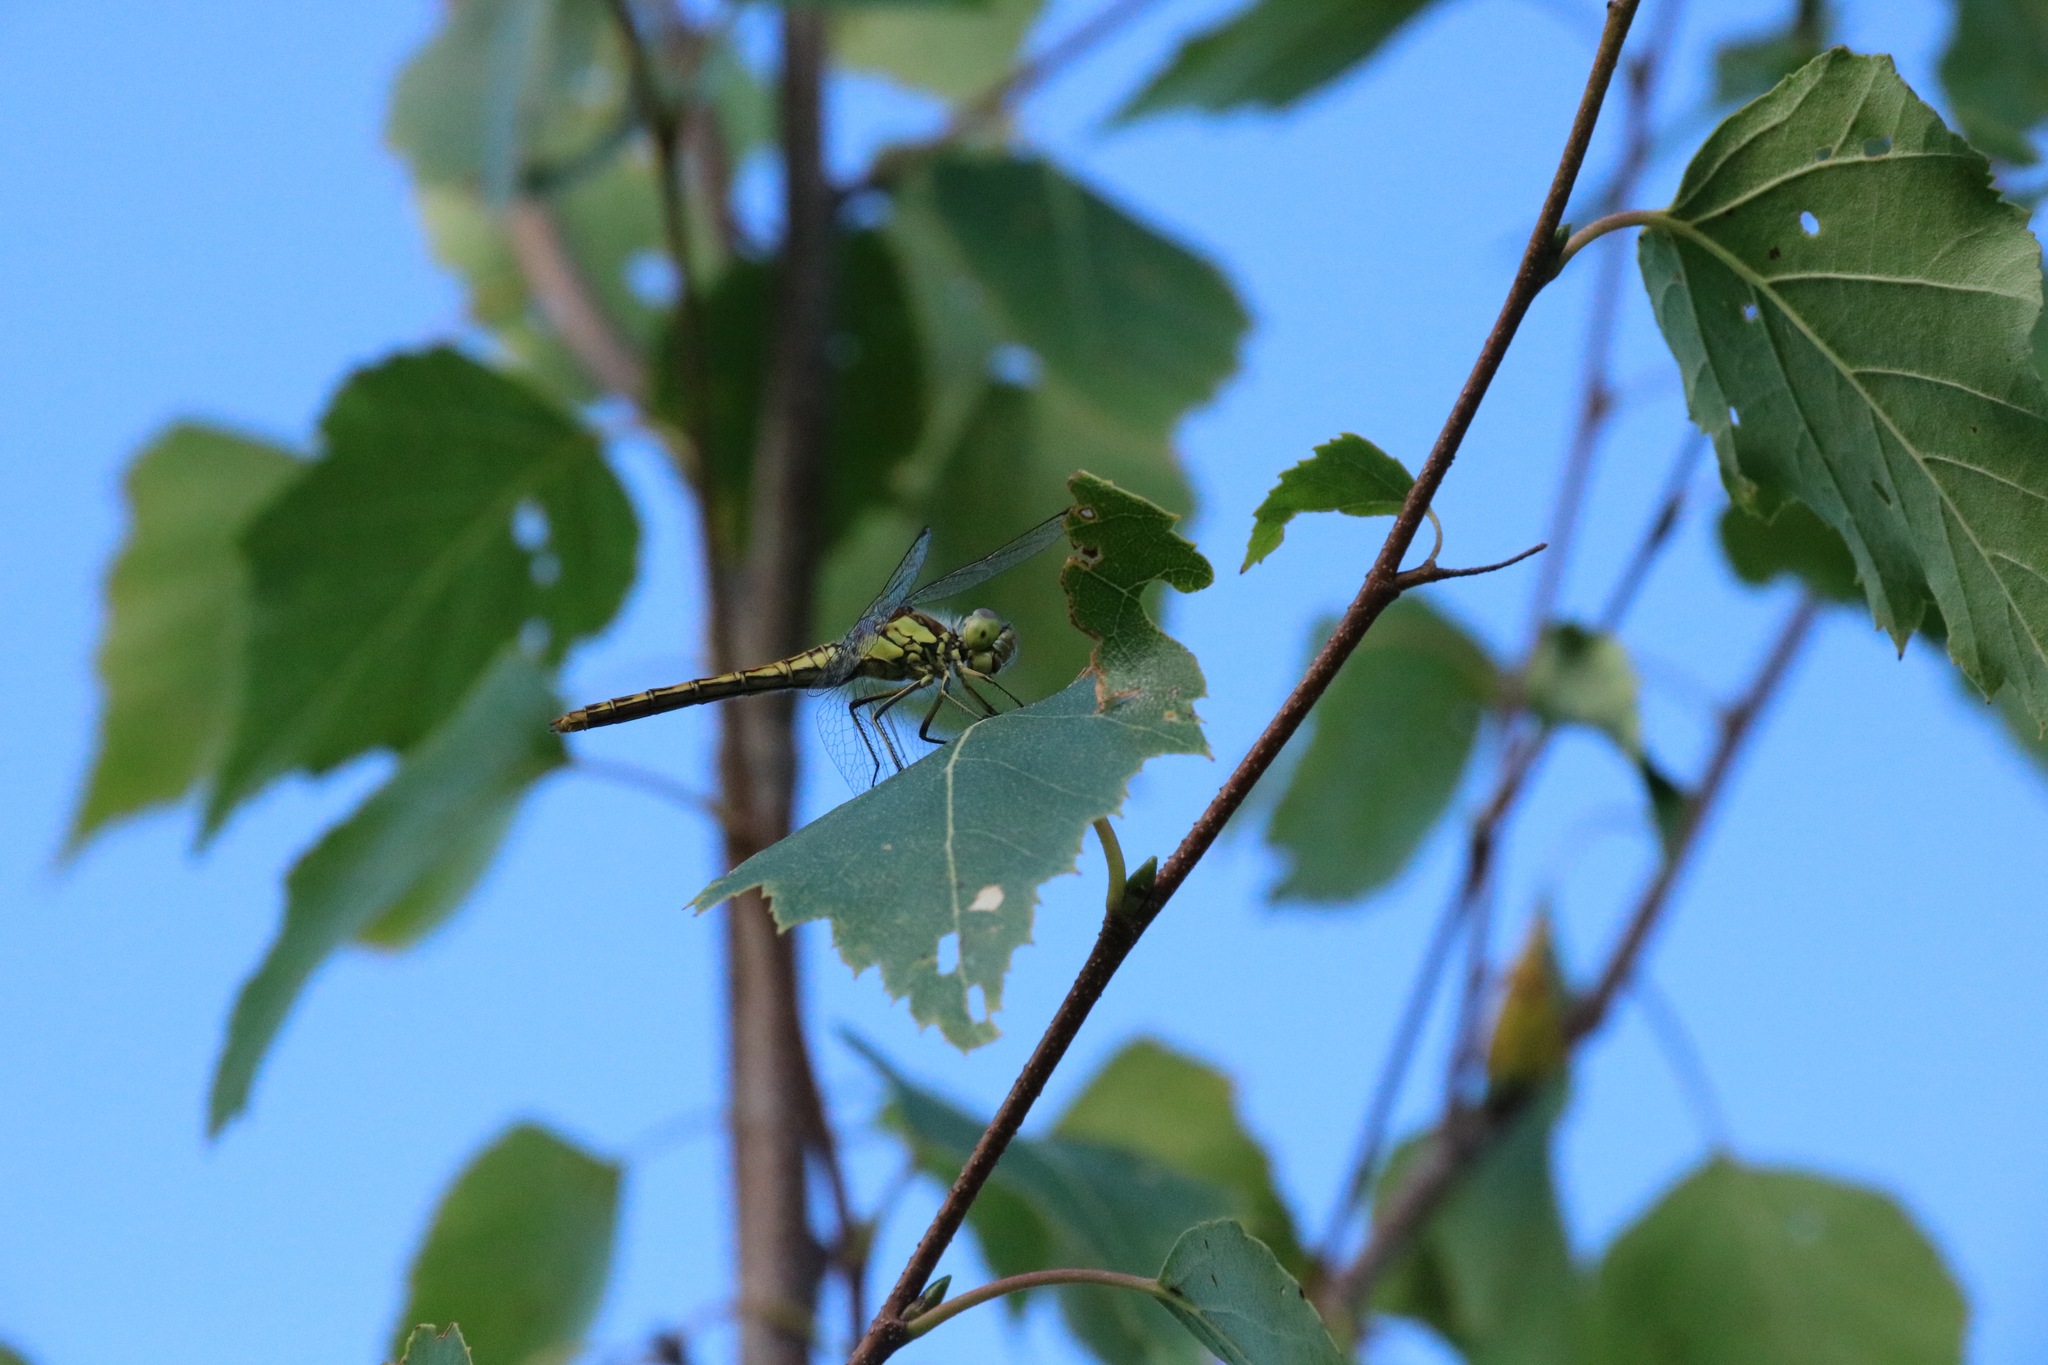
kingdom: Animalia
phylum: Arthropoda
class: Insecta
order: Odonata
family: Libellulidae
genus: Sympetrum
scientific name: Sympetrum vulgatum
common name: Vagrant darter
